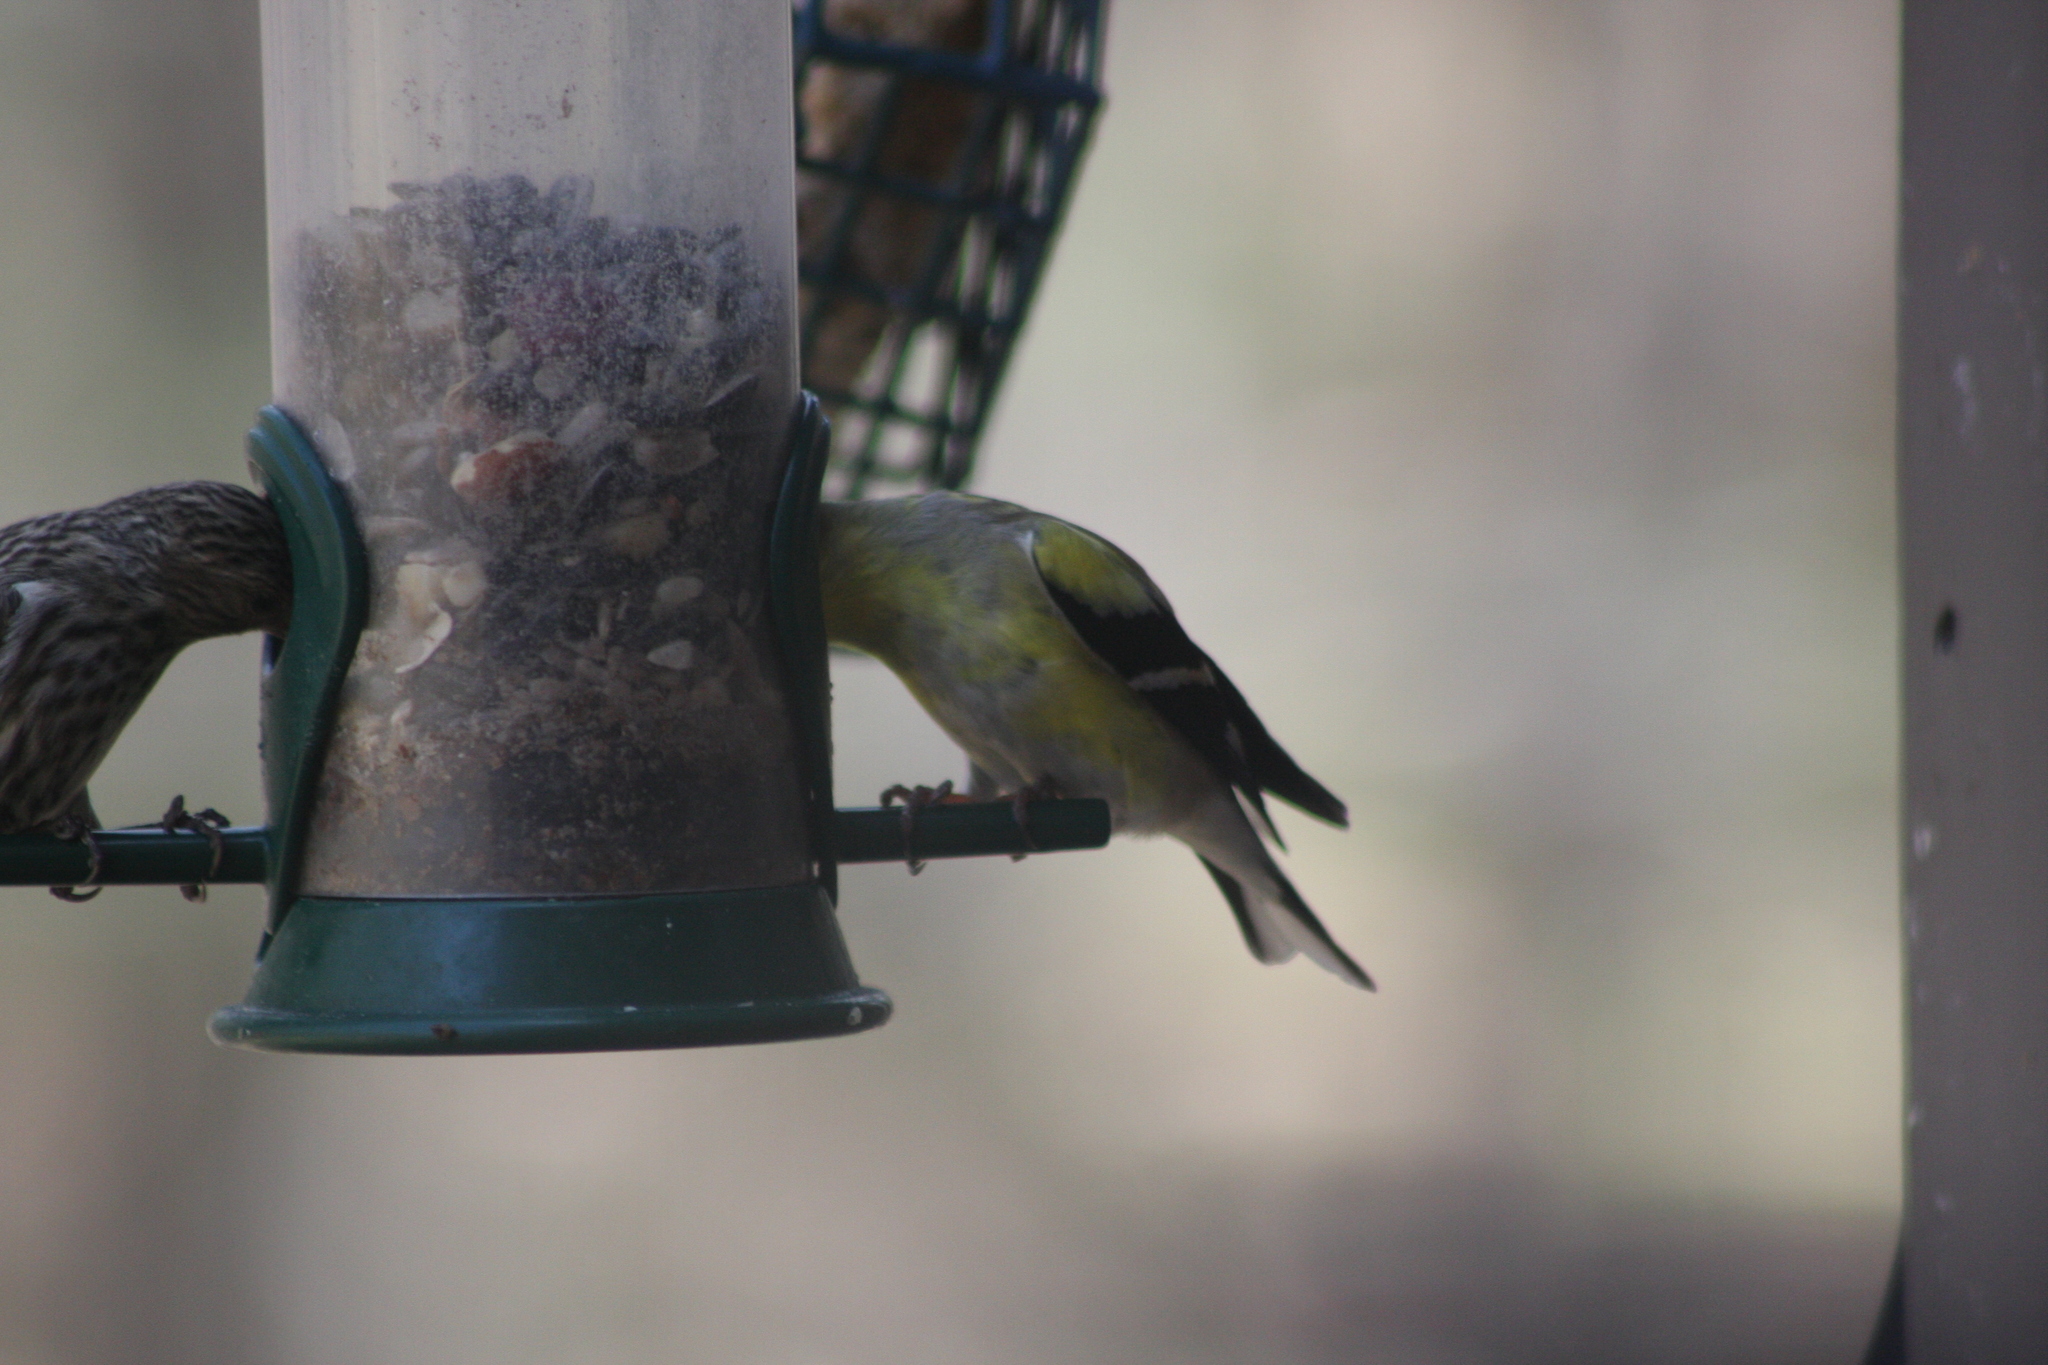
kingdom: Animalia
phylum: Chordata
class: Aves
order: Passeriformes
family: Fringillidae
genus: Spinus
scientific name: Spinus tristis
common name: American goldfinch
